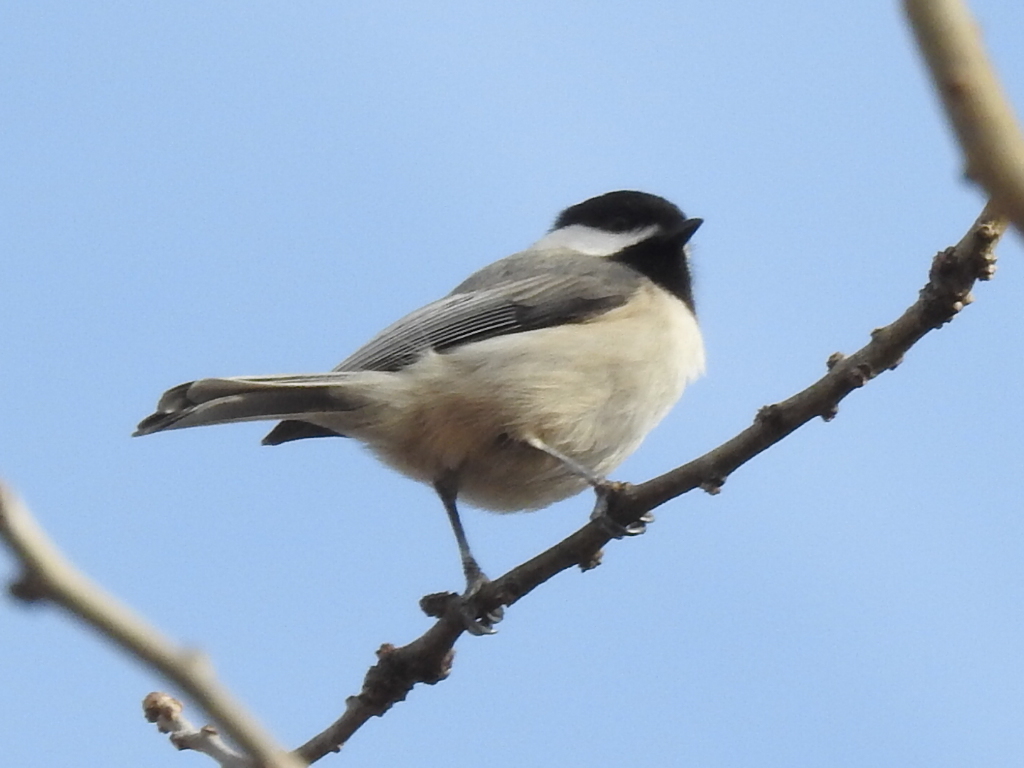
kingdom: Animalia
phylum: Chordata
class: Aves
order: Passeriformes
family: Paridae
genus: Poecile
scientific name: Poecile carolinensis
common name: Carolina chickadee
